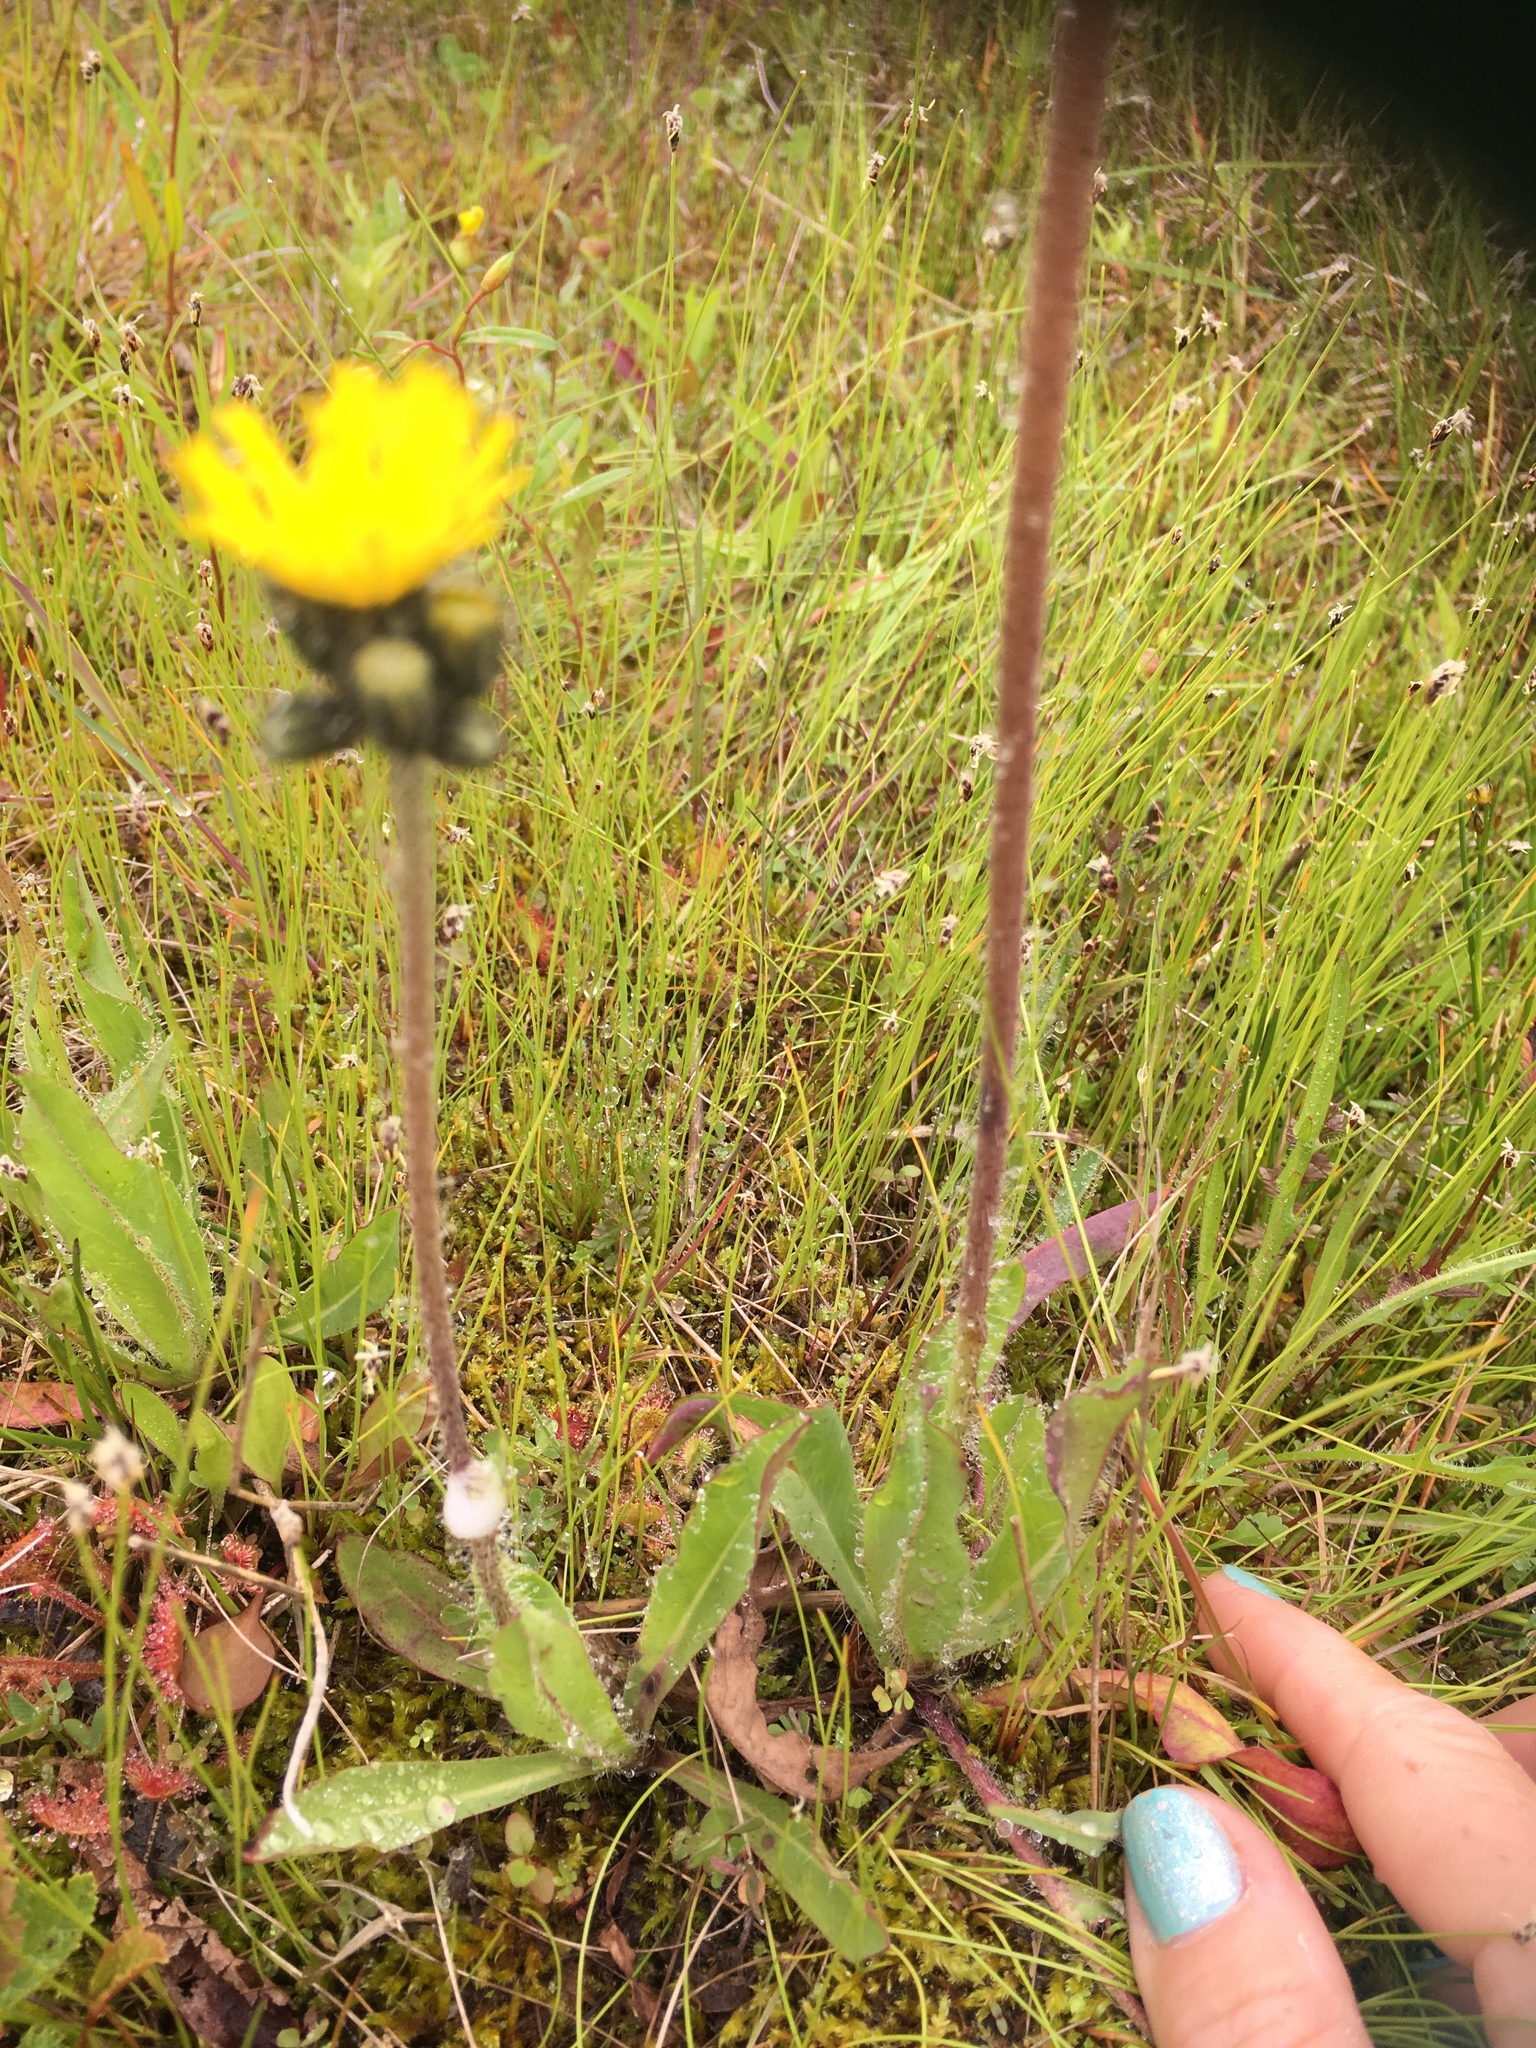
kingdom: Plantae
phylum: Tracheophyta
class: Magnoliopsida
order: Asterales
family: Asteraceae
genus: Pilosella
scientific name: Pilosella piloselloides
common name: Glaucous king-devil
